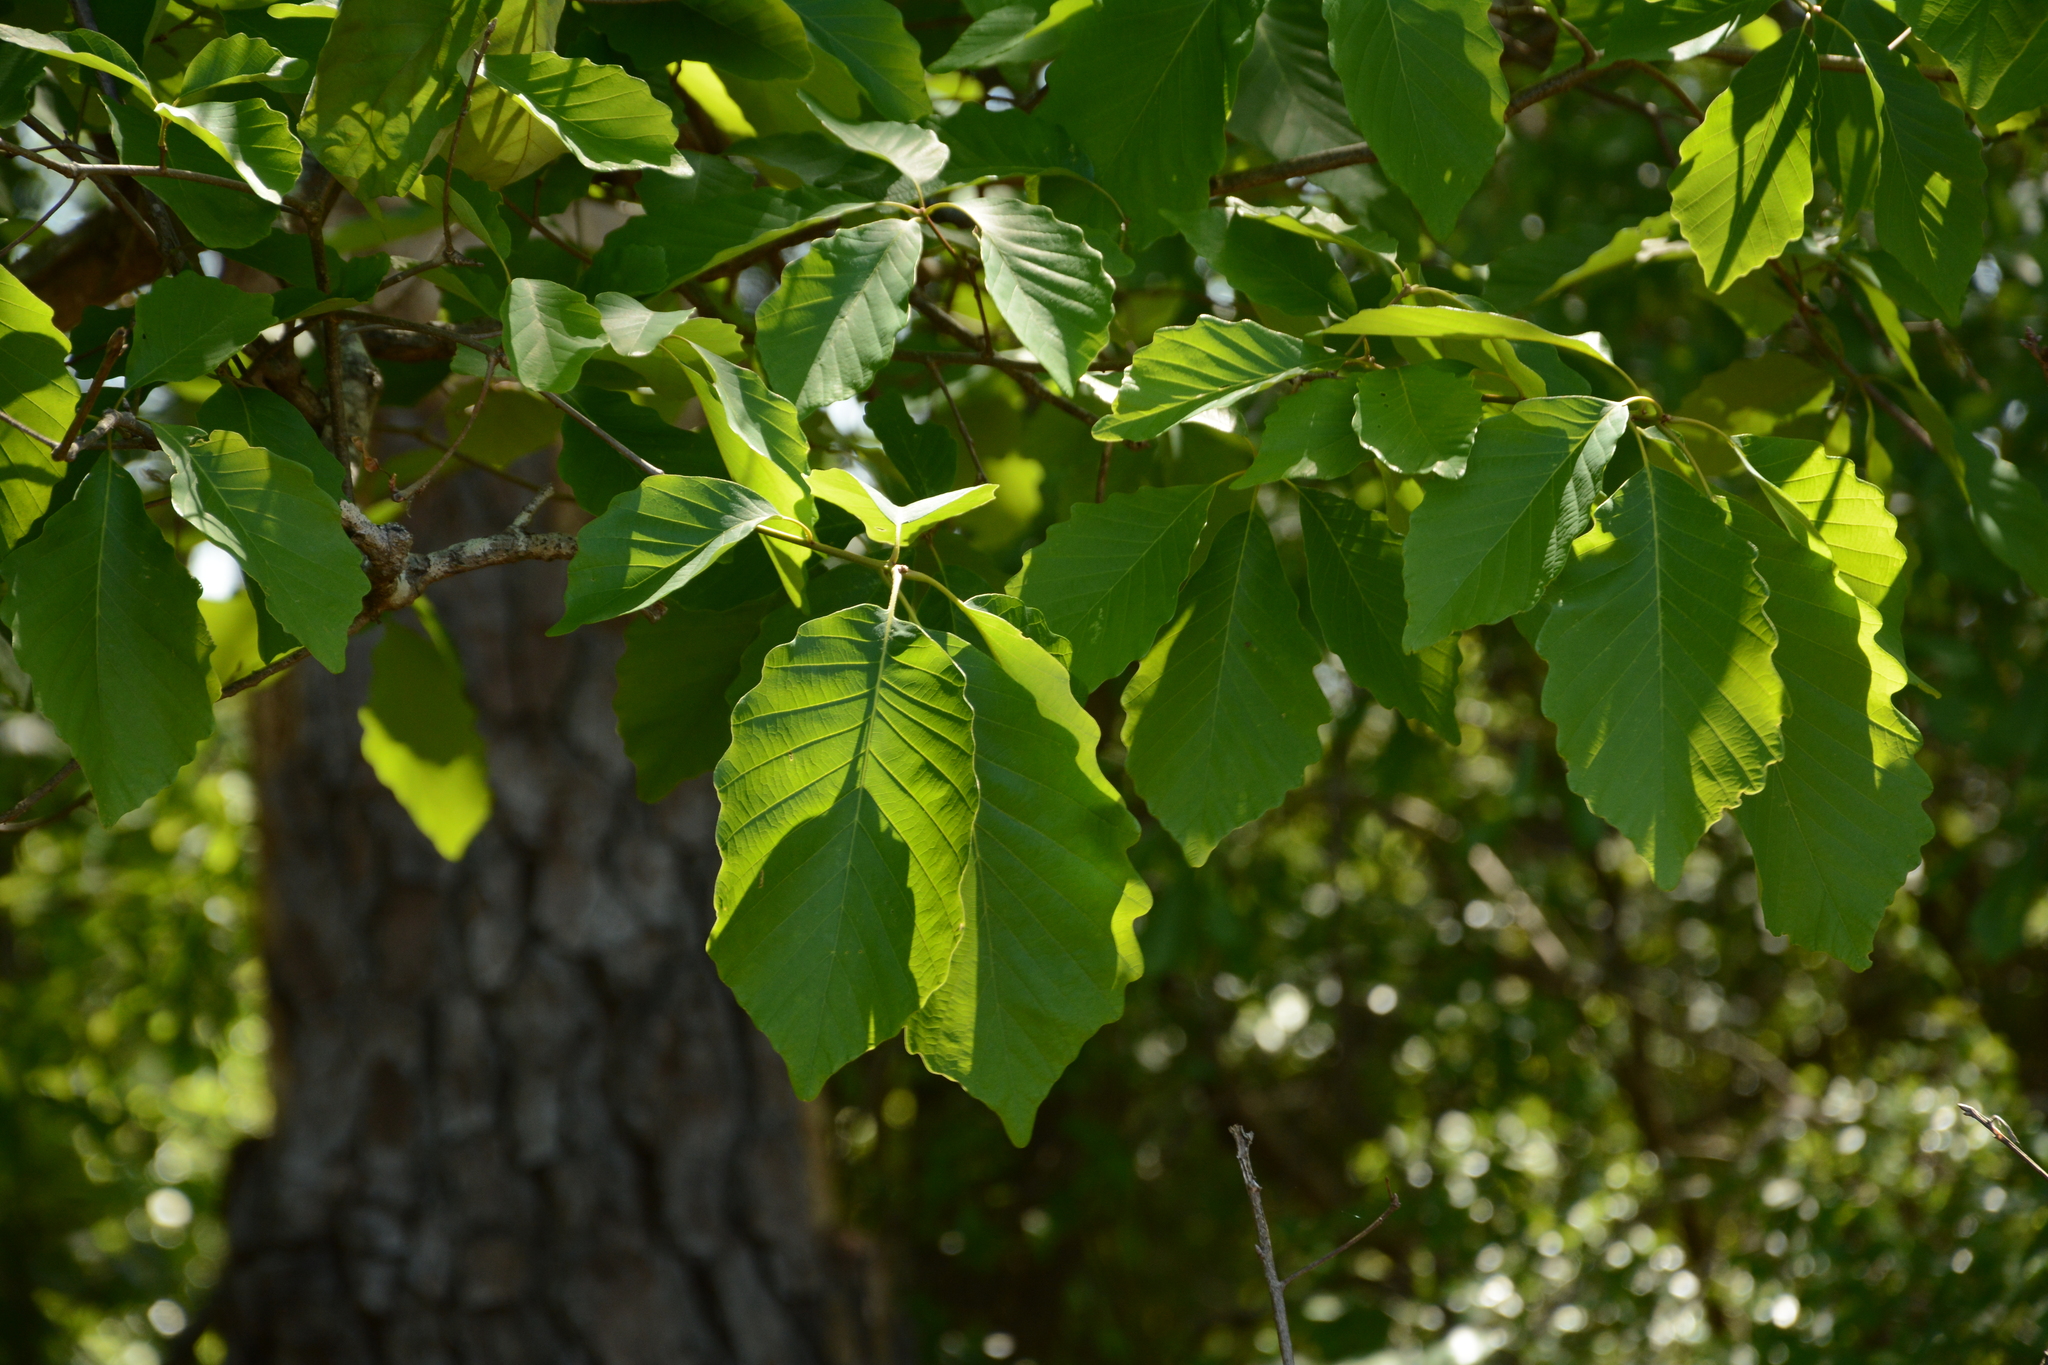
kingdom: Plantae
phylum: Tracheophyta
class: Magnoliopsida
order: Fagales
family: Fagaceae
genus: Quercus
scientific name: Quercus montana
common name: Chestnut oak
